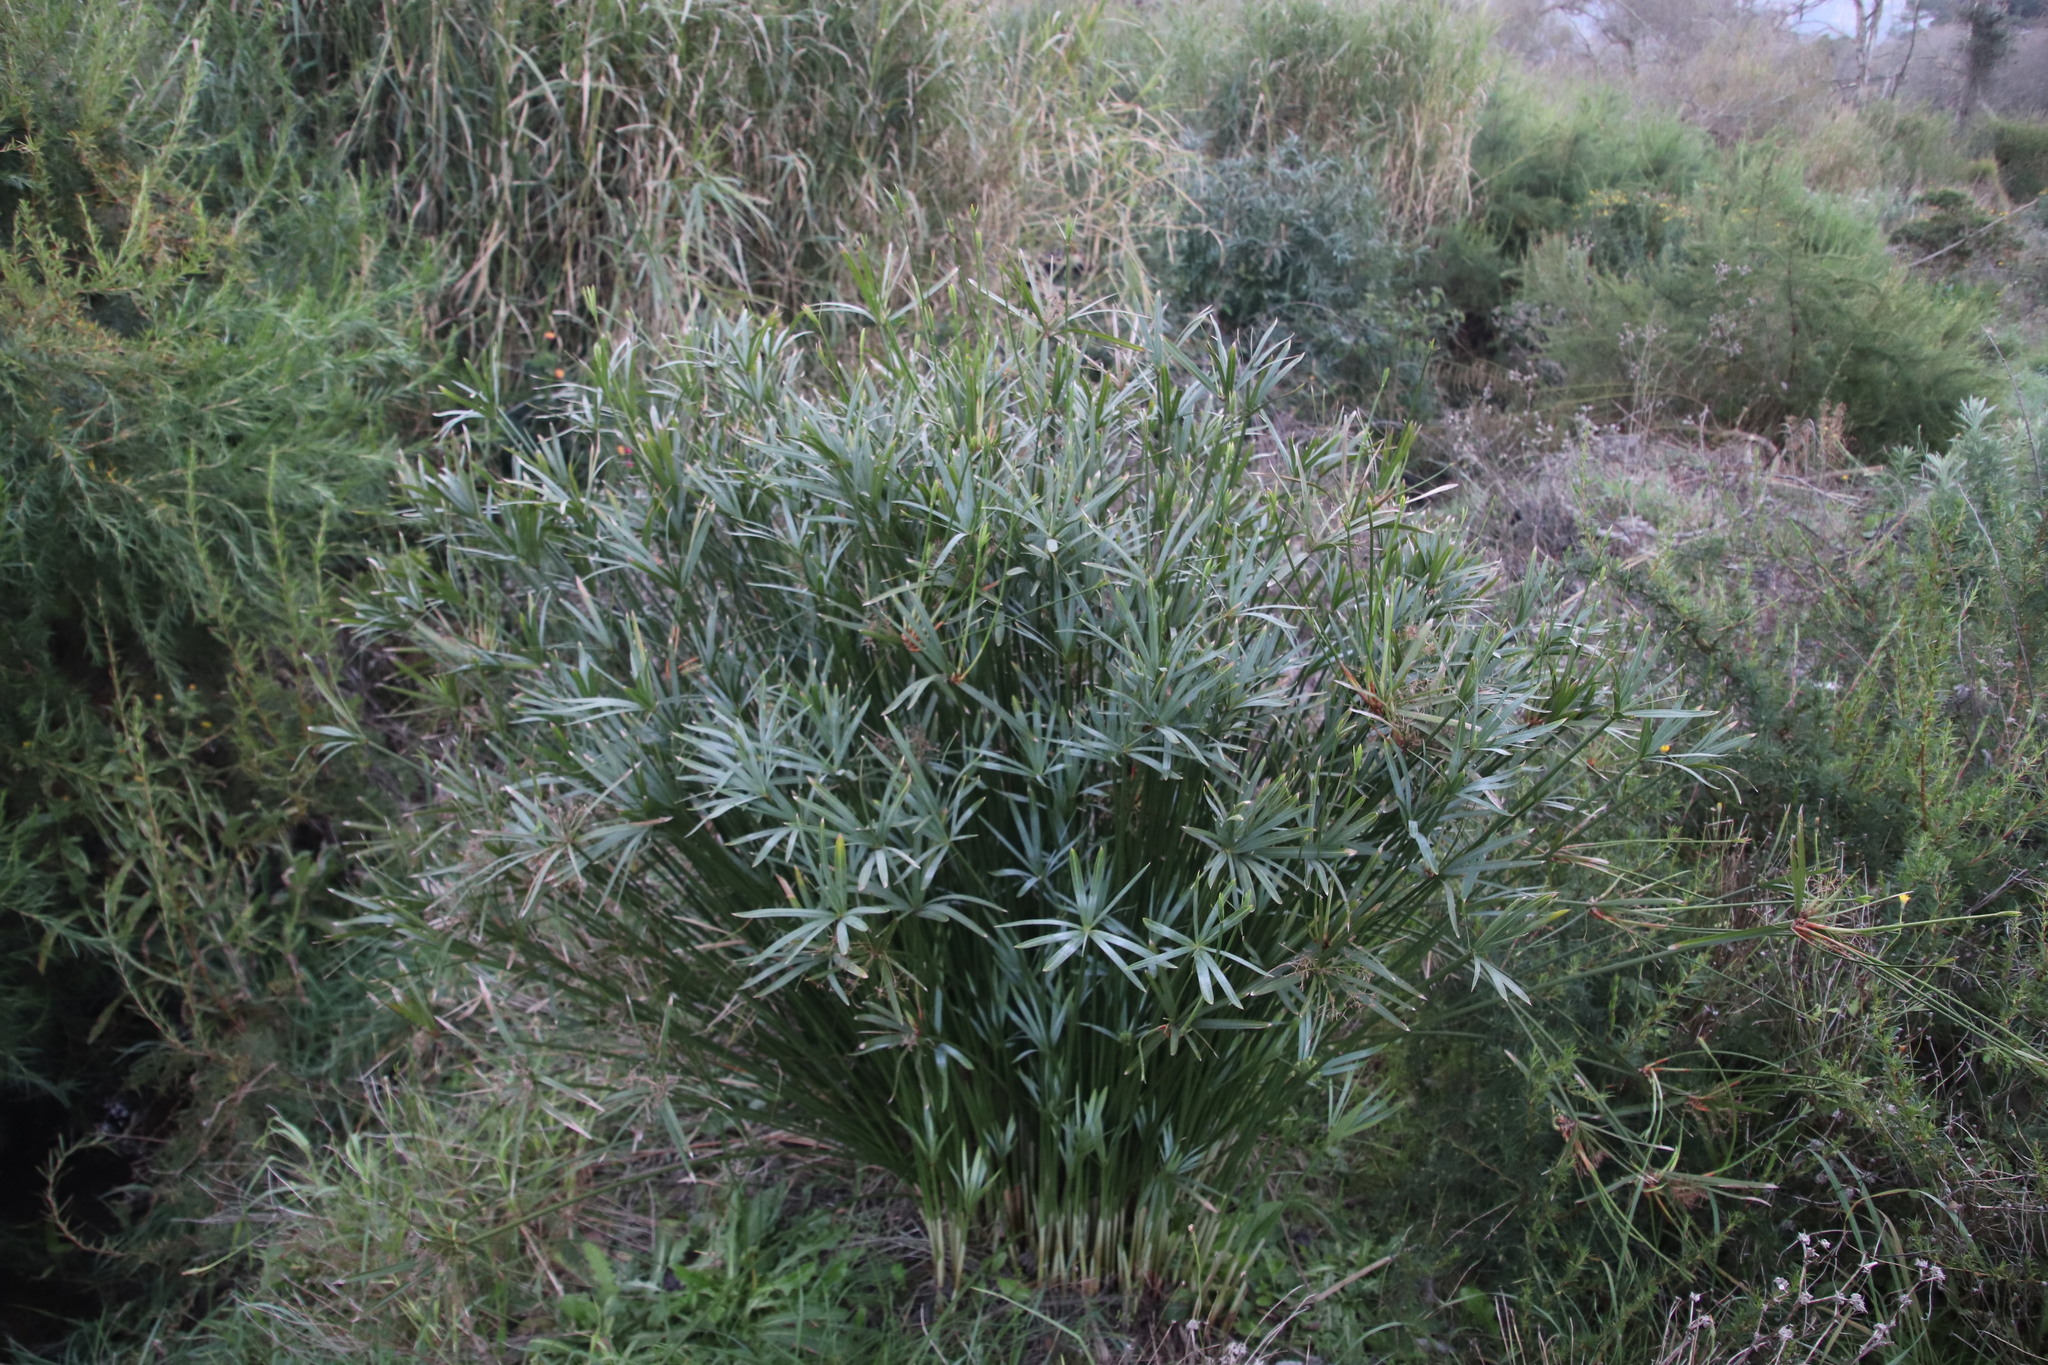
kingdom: Plantae
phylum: Tracheophyta
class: Liliopsida
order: Poales
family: Cyperaceae
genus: Cyperus
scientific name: Cyperus textilis
